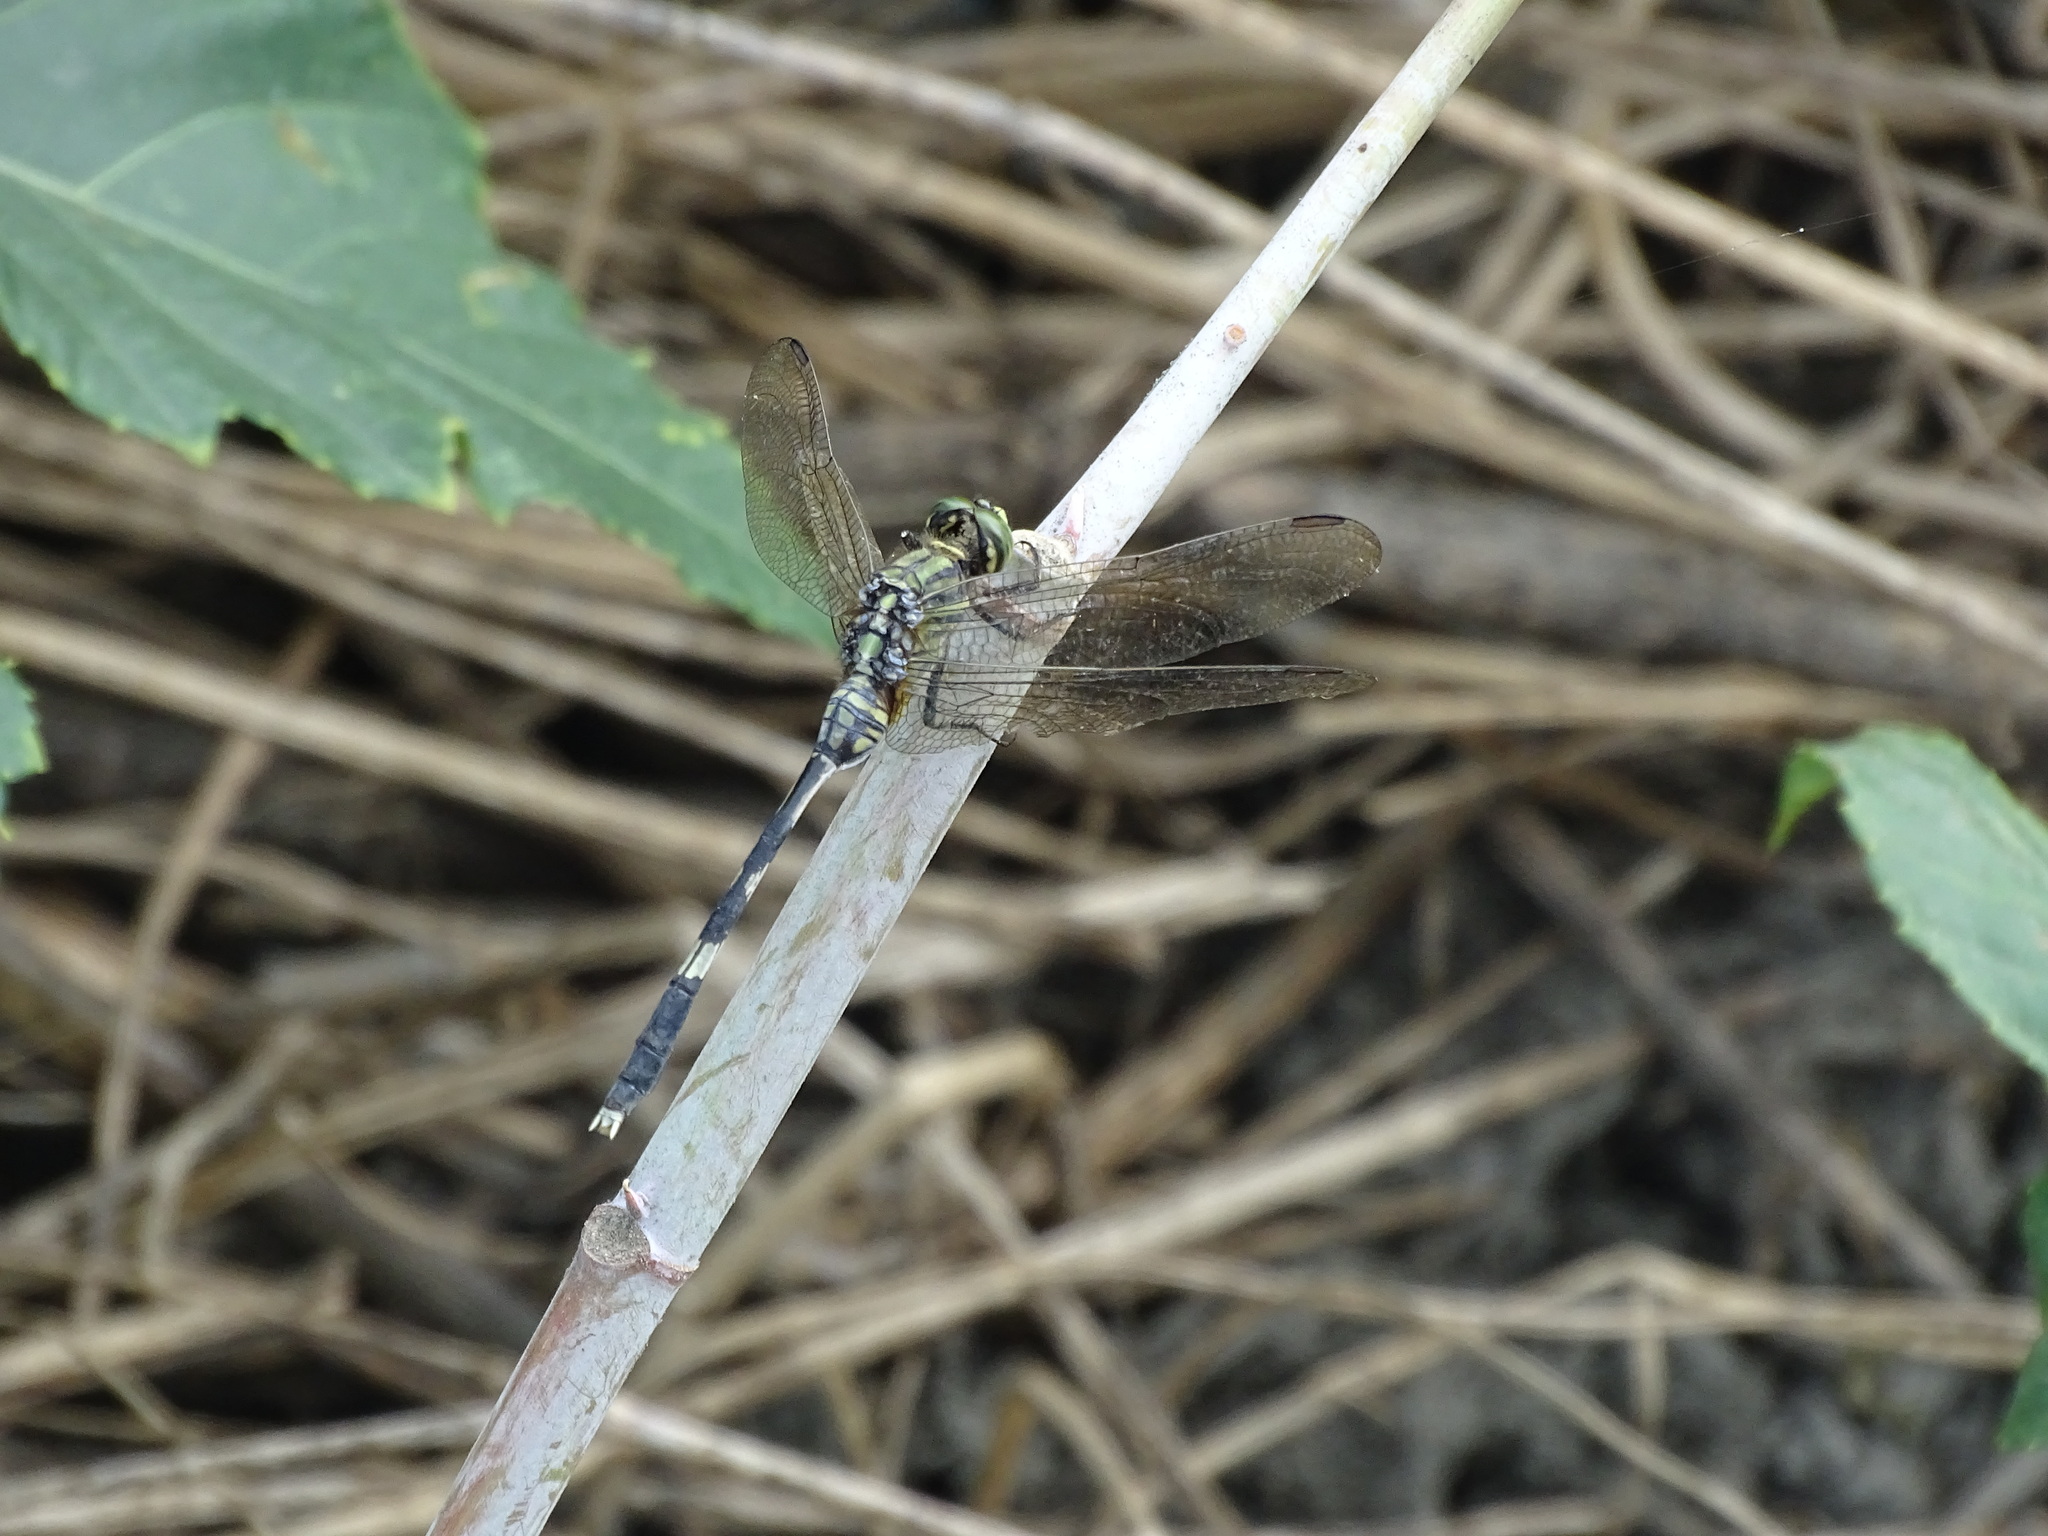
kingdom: Animalia
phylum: Arthropoda
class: Insecta
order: Odonata
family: Libellulidae
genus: Orthetrum
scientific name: Orthetrum sabina
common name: Slender skimmer
